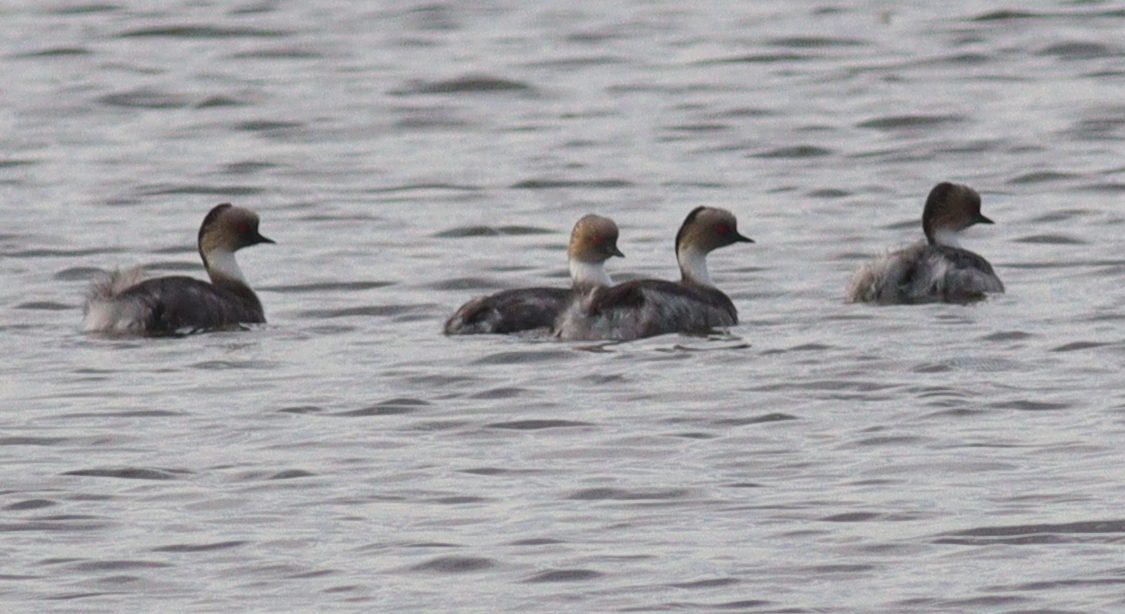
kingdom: Animalia
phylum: Chordata
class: Aves
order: Podicipediformes
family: Podicipedidae
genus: Podiceps
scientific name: Podiceps occipitalis
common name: Silvery grebe
